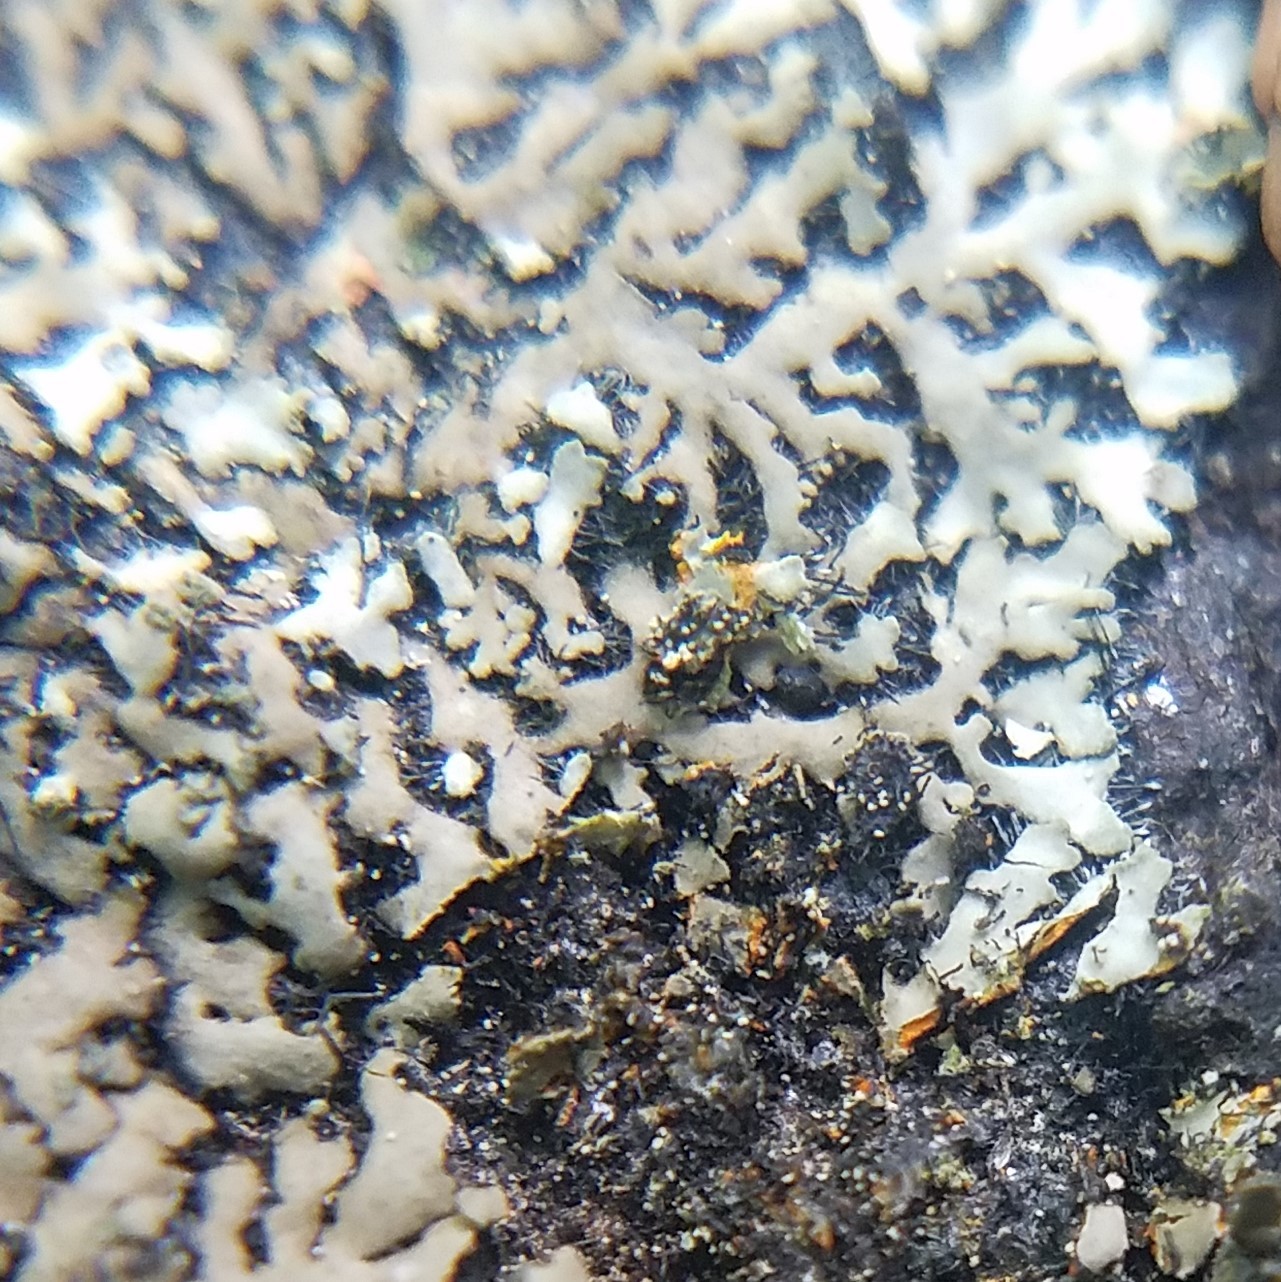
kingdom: Fungi
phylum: Ascomycota
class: Lecanoromycetes
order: Caliciales
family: Physciaceae
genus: Phaeophyscia
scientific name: Phaeophyscia rubropulchra
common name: Orange-cored shadow lichen
